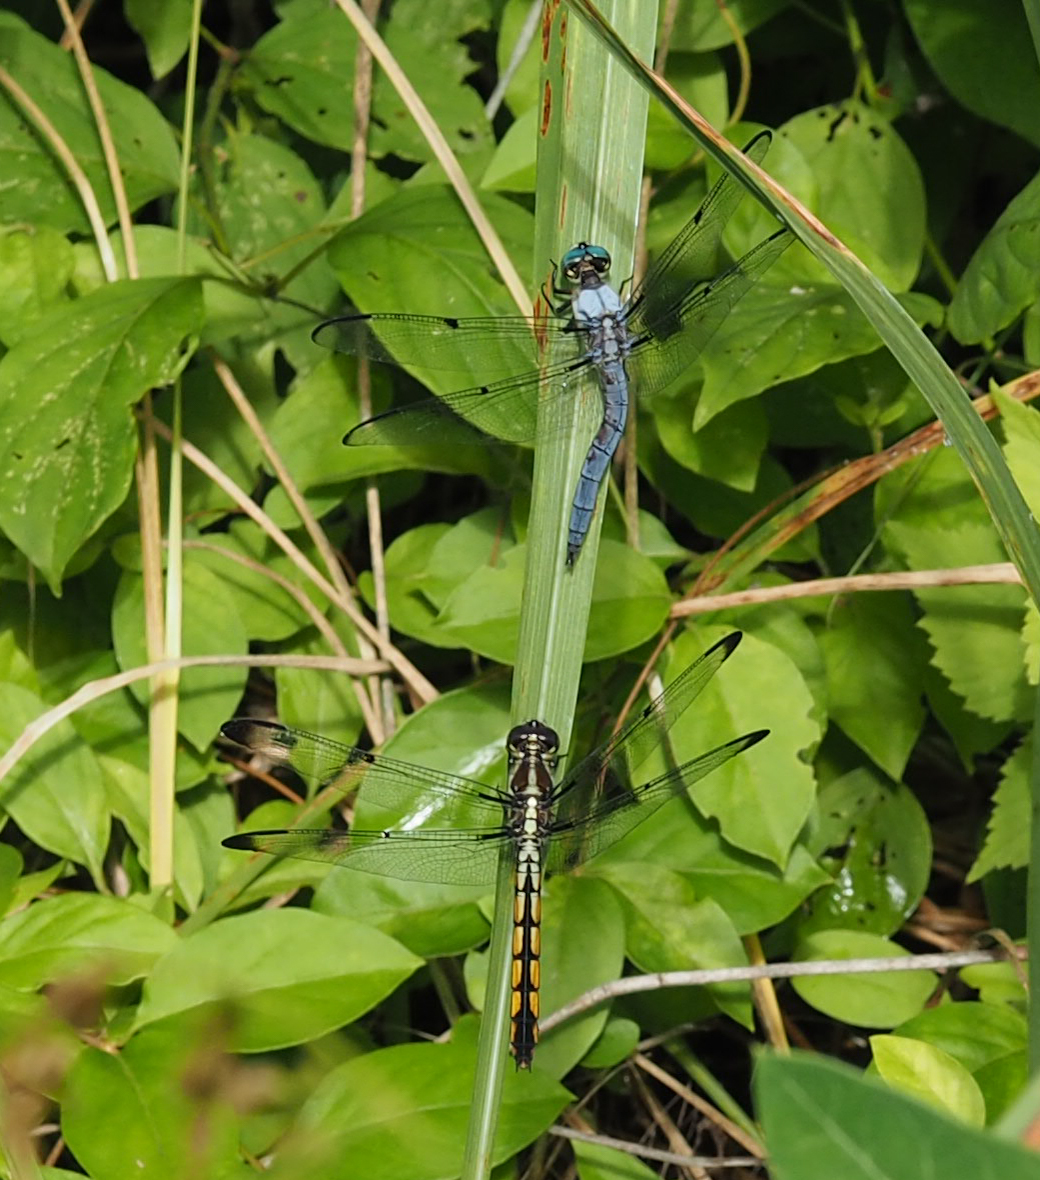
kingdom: Animalia
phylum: Arthropoda
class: Insecta
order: Odonata
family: Libellulidae
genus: Libellula
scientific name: Libellula vibrans
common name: Great blue skimmer
